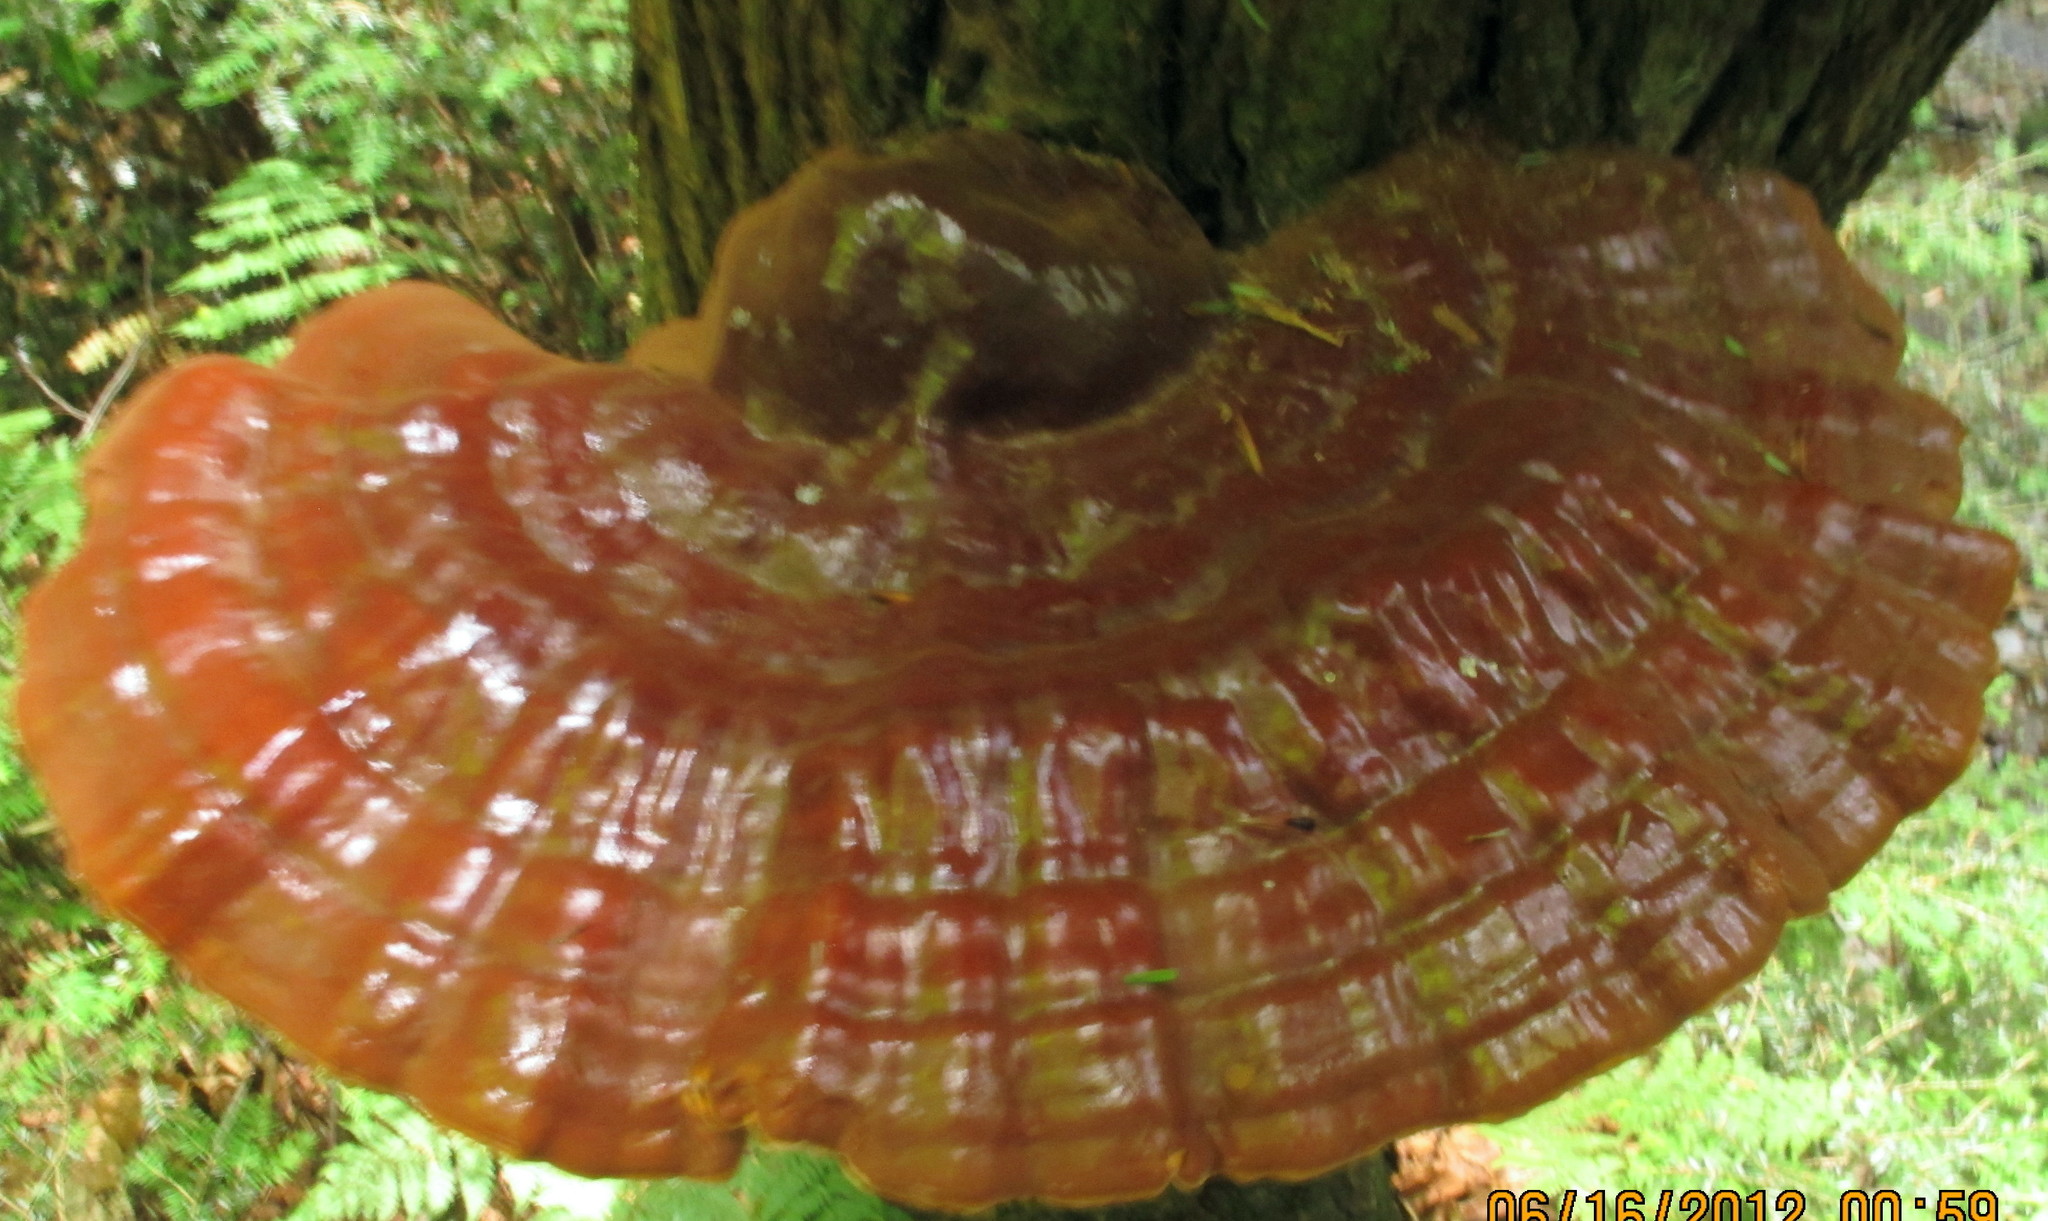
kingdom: Fungi
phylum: Basidiomycota
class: Agaricomycetes
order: Polyporales
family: Polyporaceae
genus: Ganoderma
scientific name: Ganoderma tsugae
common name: Hemlock varnish shelf
